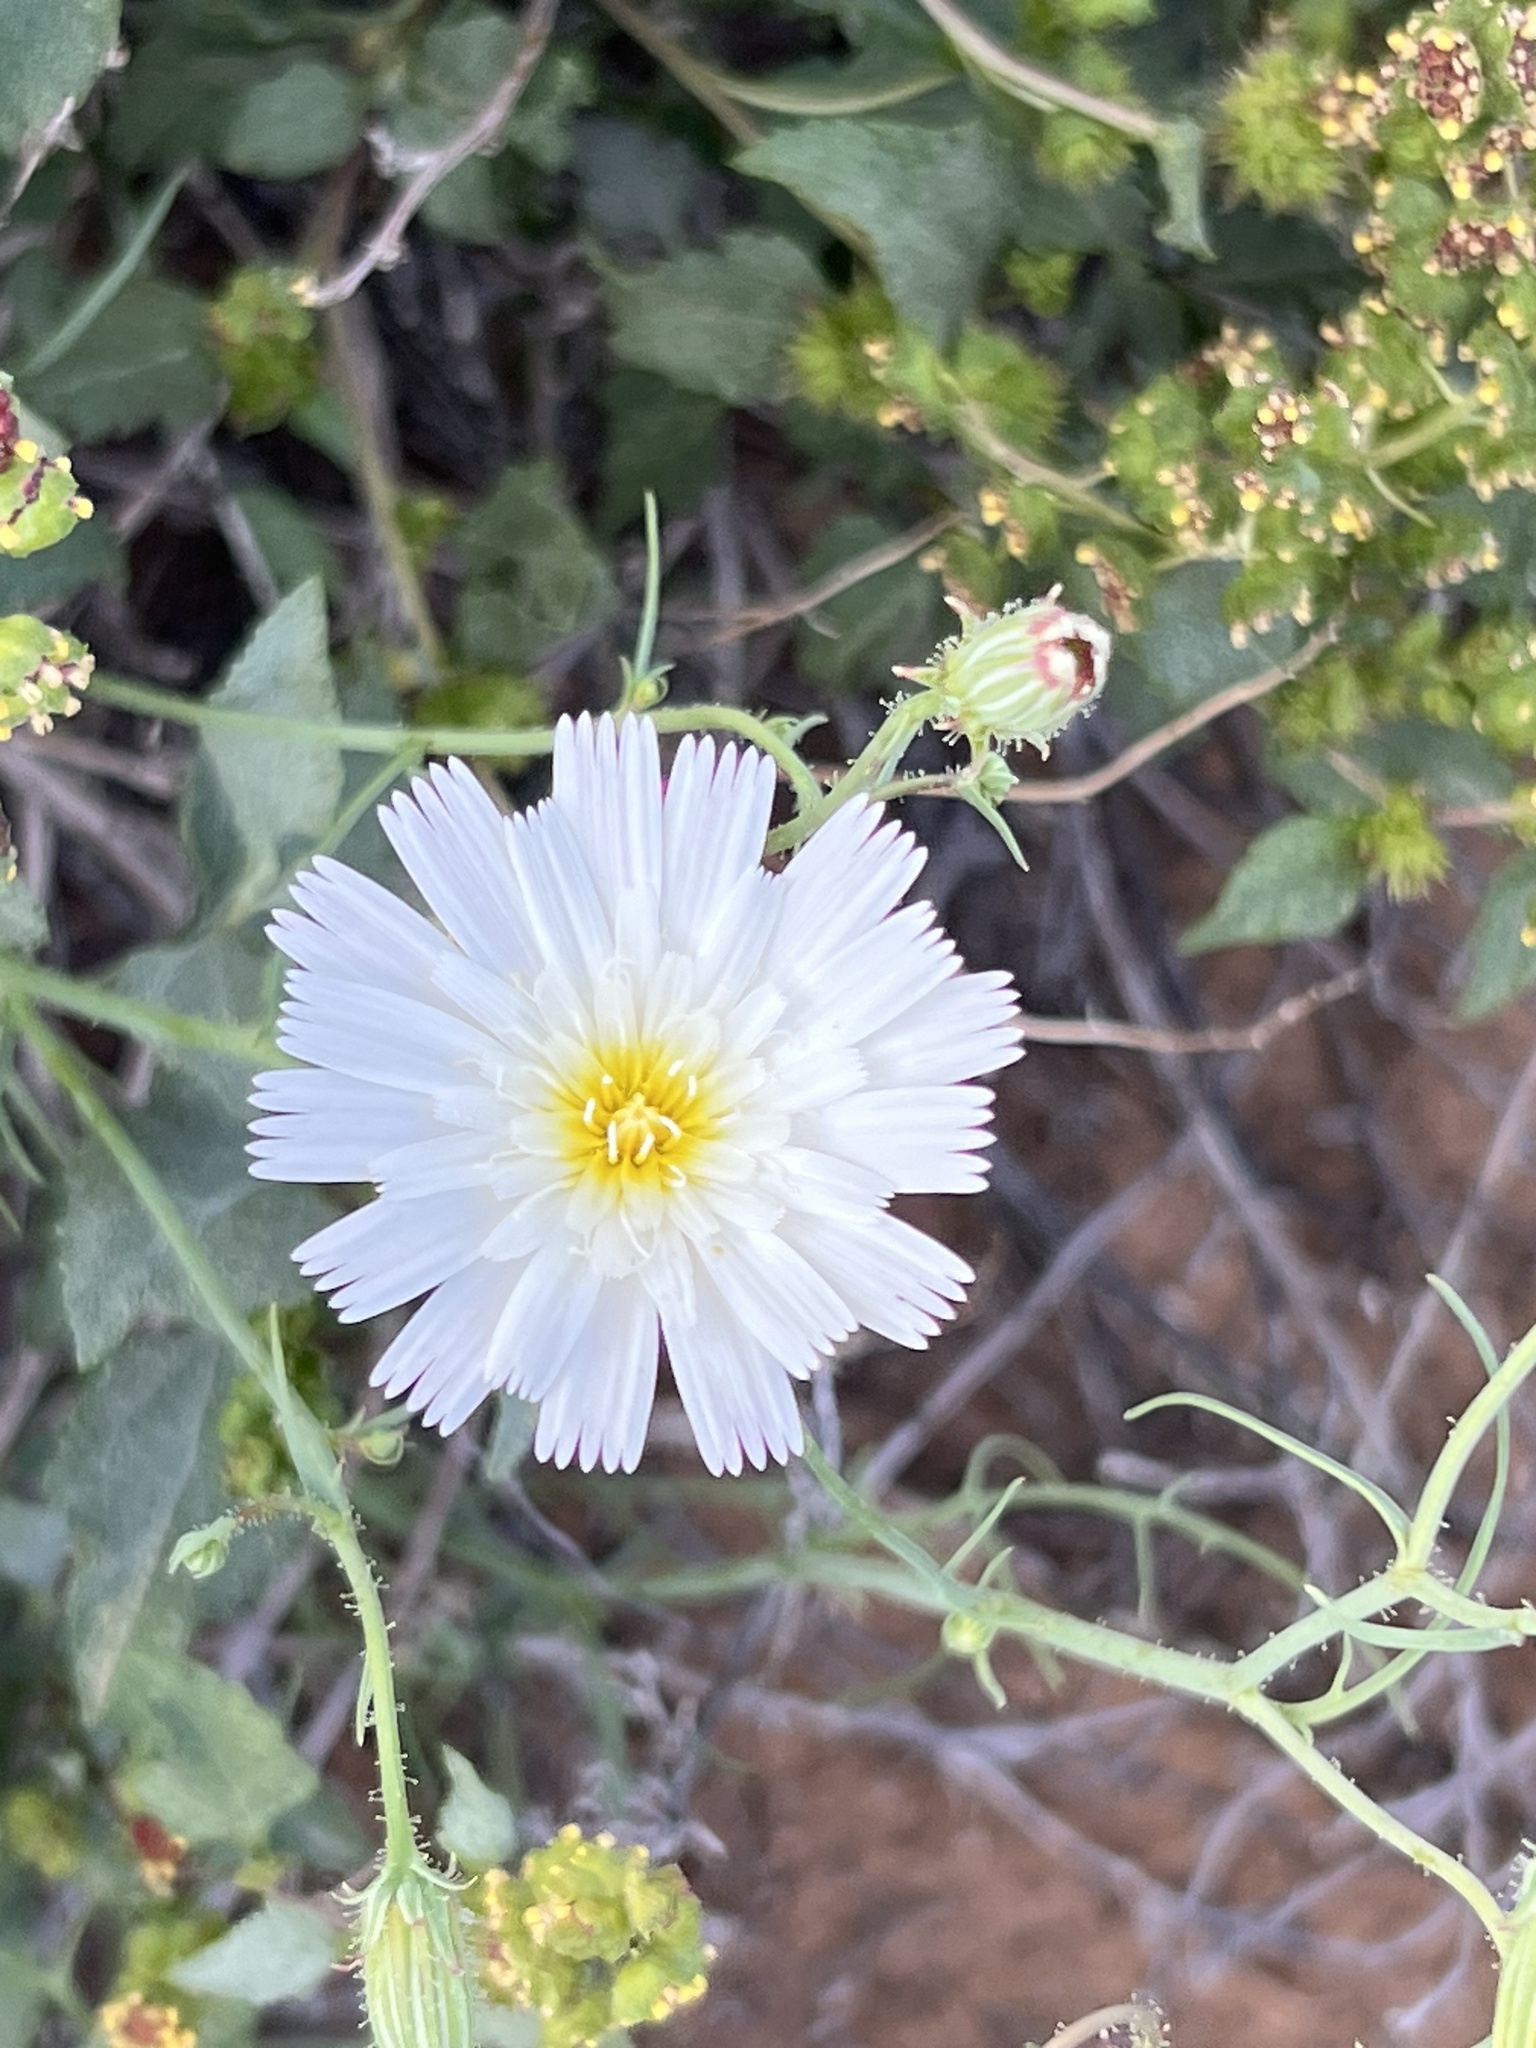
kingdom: Plantae
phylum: Tracheophyta
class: Magnoliopsida
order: Asterales
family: Asteraceae
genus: Calycoseris
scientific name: Calycoseris wrightii
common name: White tackstem
